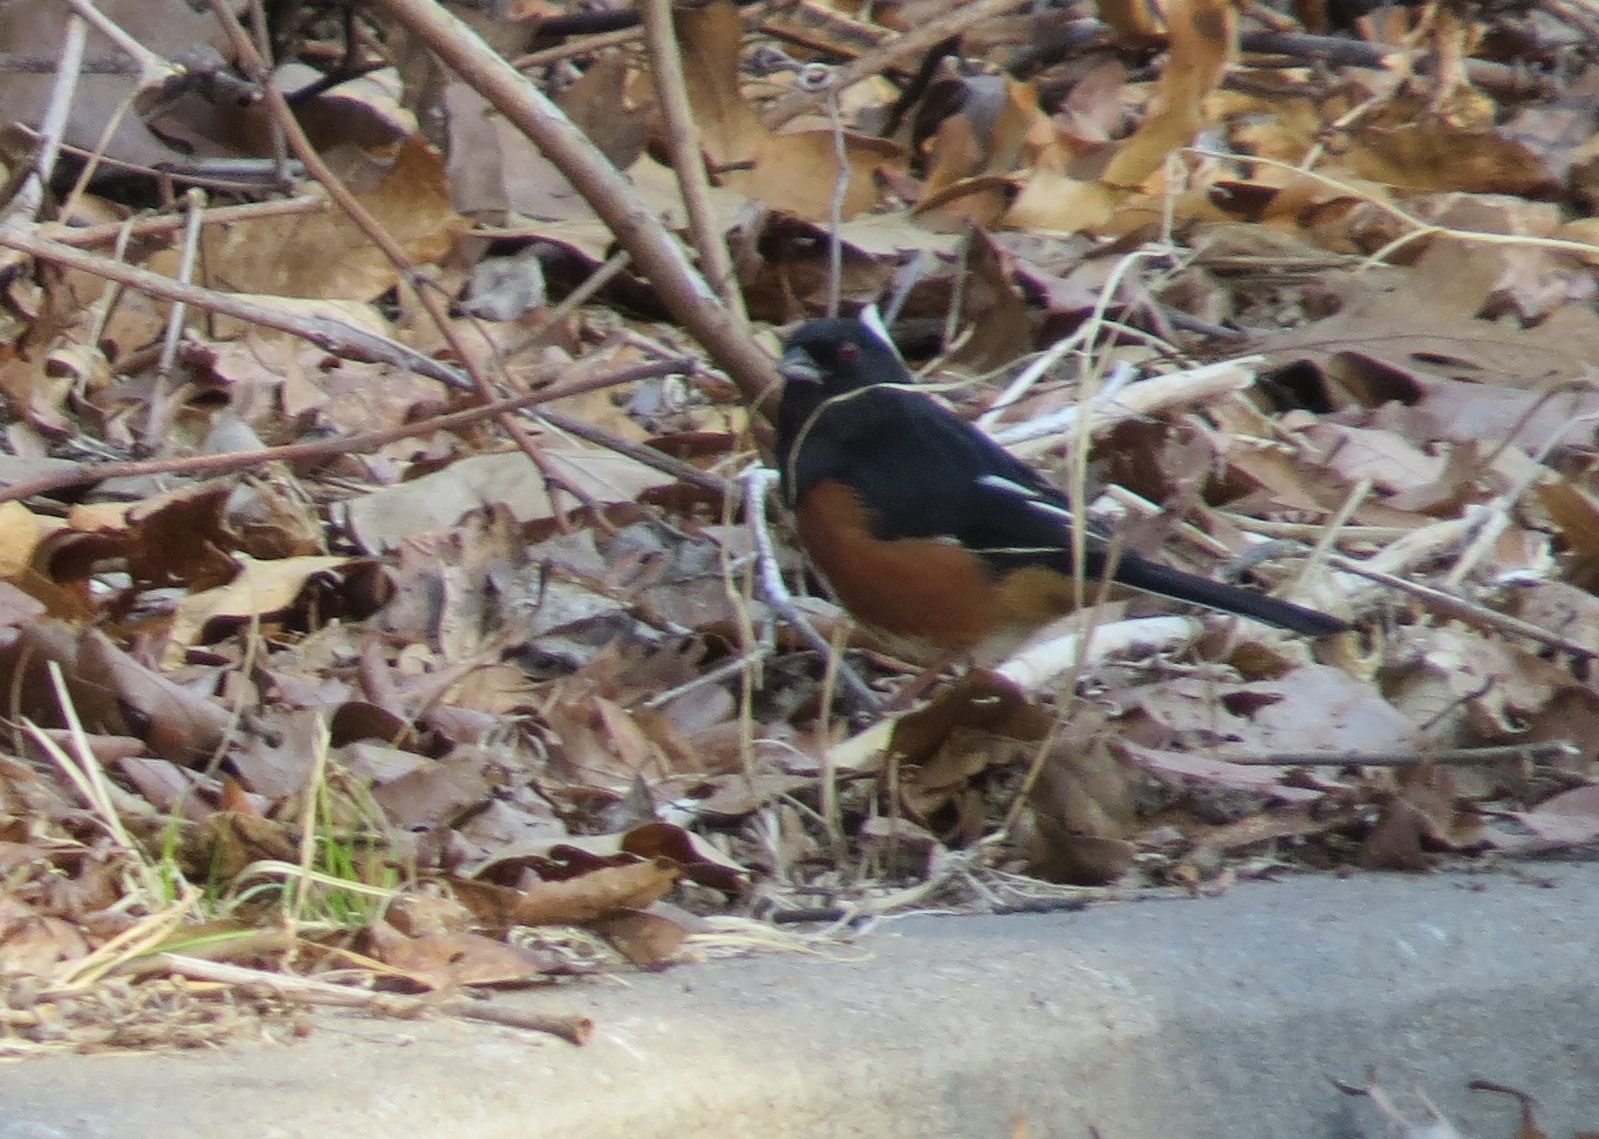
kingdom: Animalia
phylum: Chordata
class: Aves
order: Passeriformes
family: Passerellidae
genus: Pipilo
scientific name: Pipilo erythrophthalmus
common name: Eastern towhee
